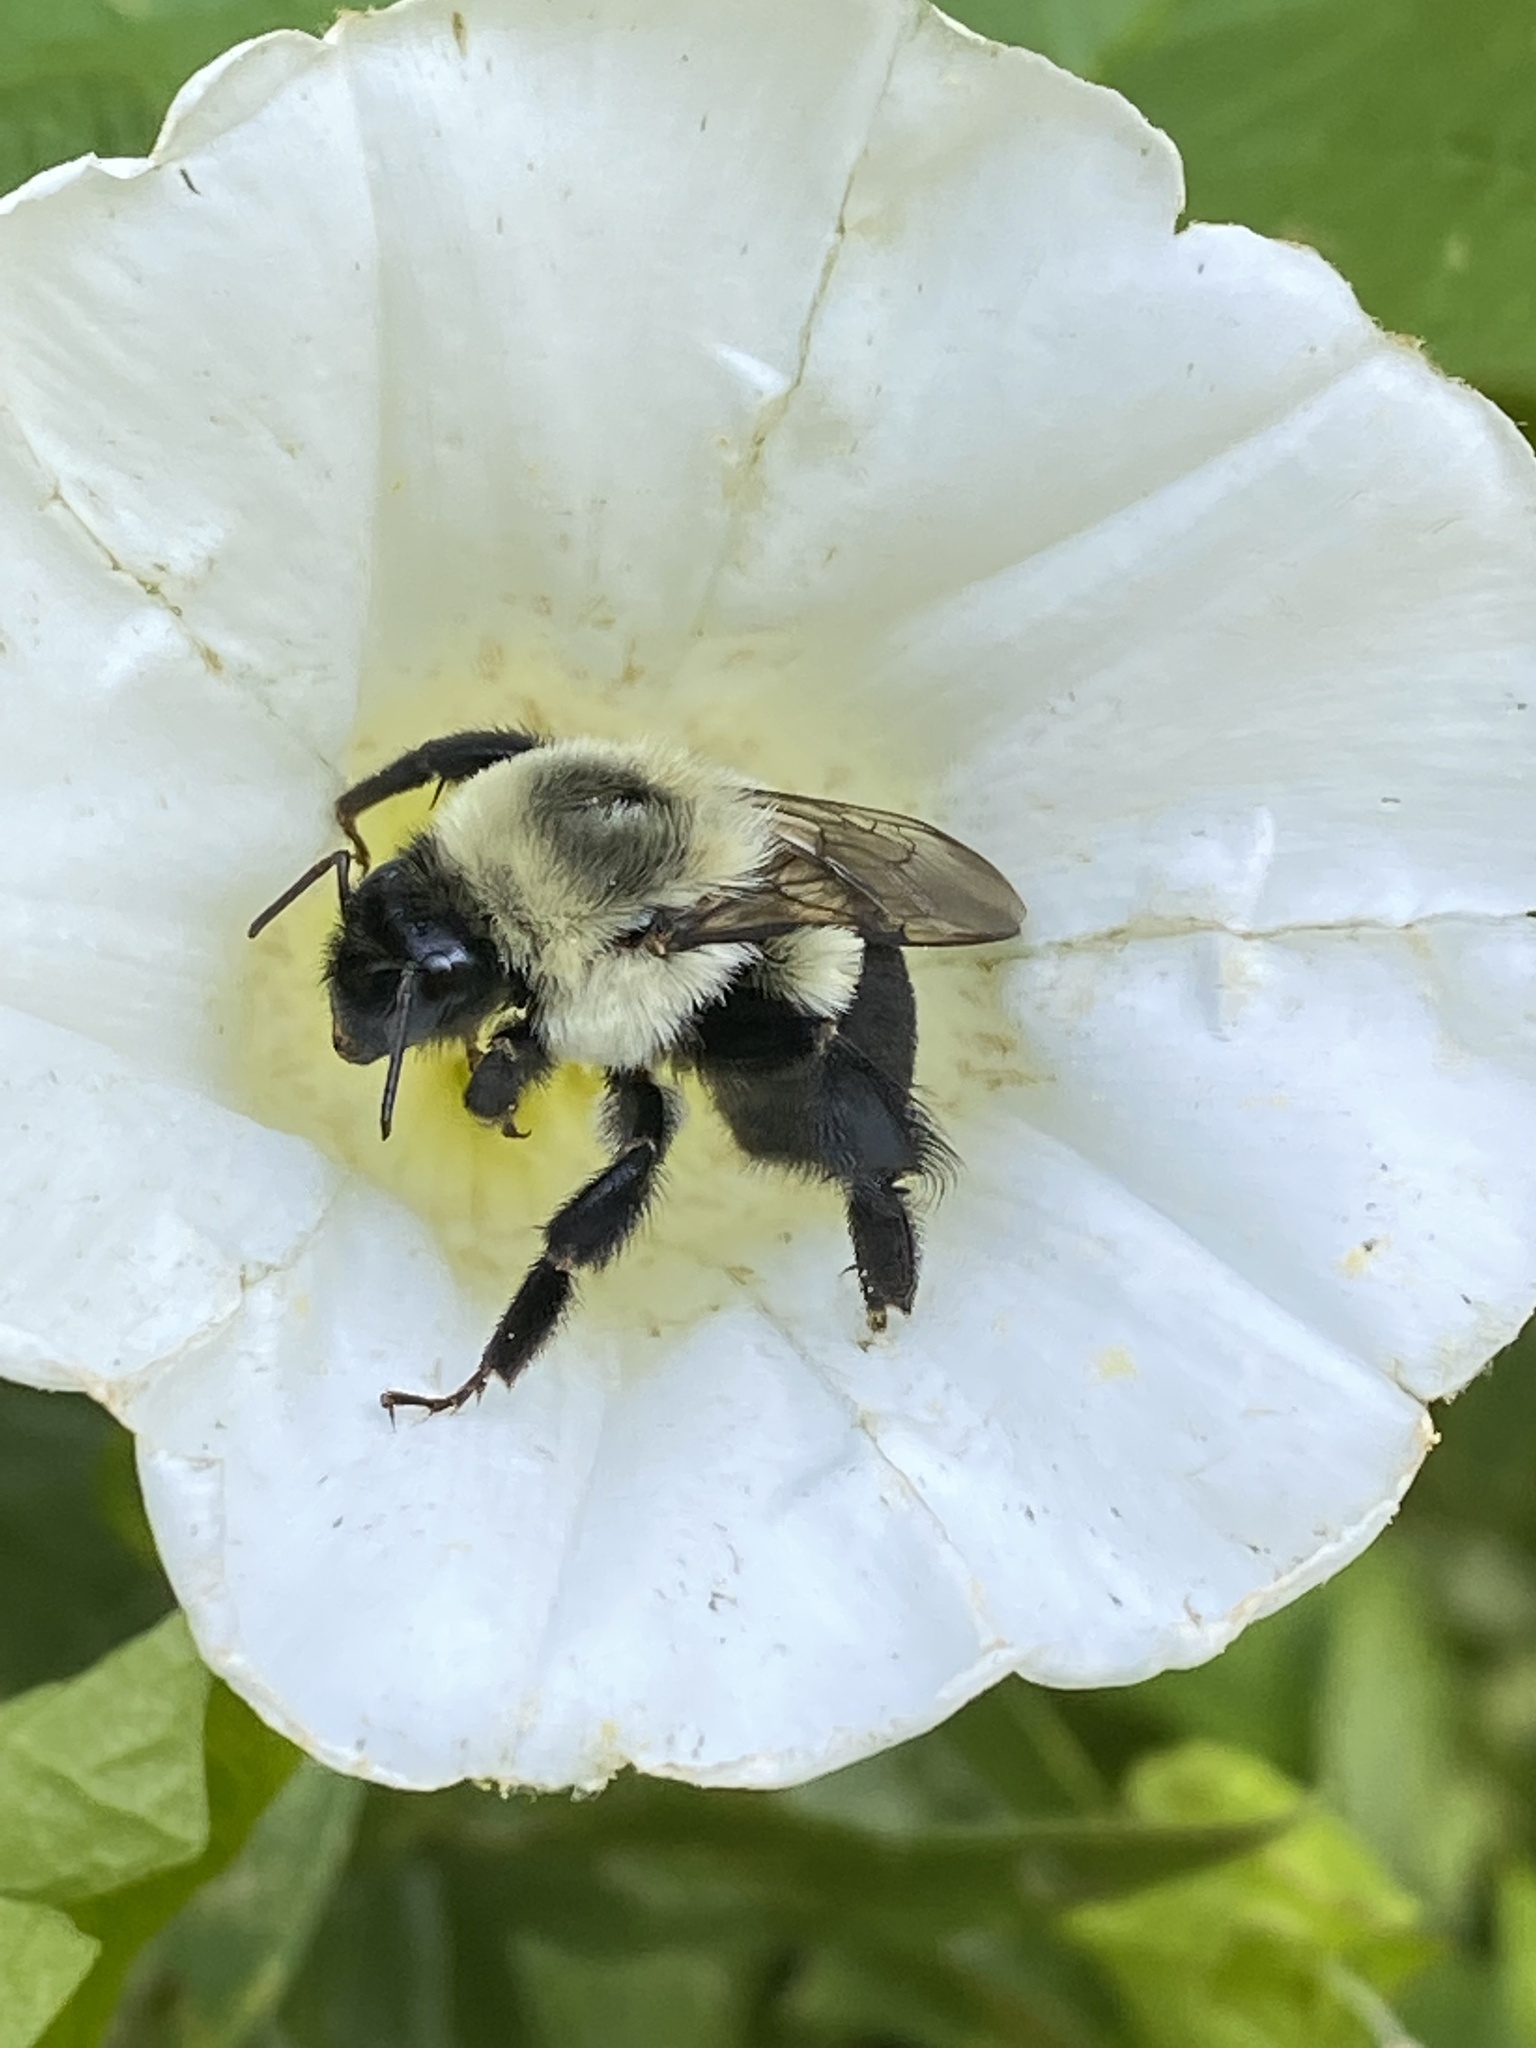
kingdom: Animalia
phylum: Arthropoda
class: Insecta
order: Hymenoptera
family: Apidae
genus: Bombus
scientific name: Bombus impatiens
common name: Common eastern bumble bee
